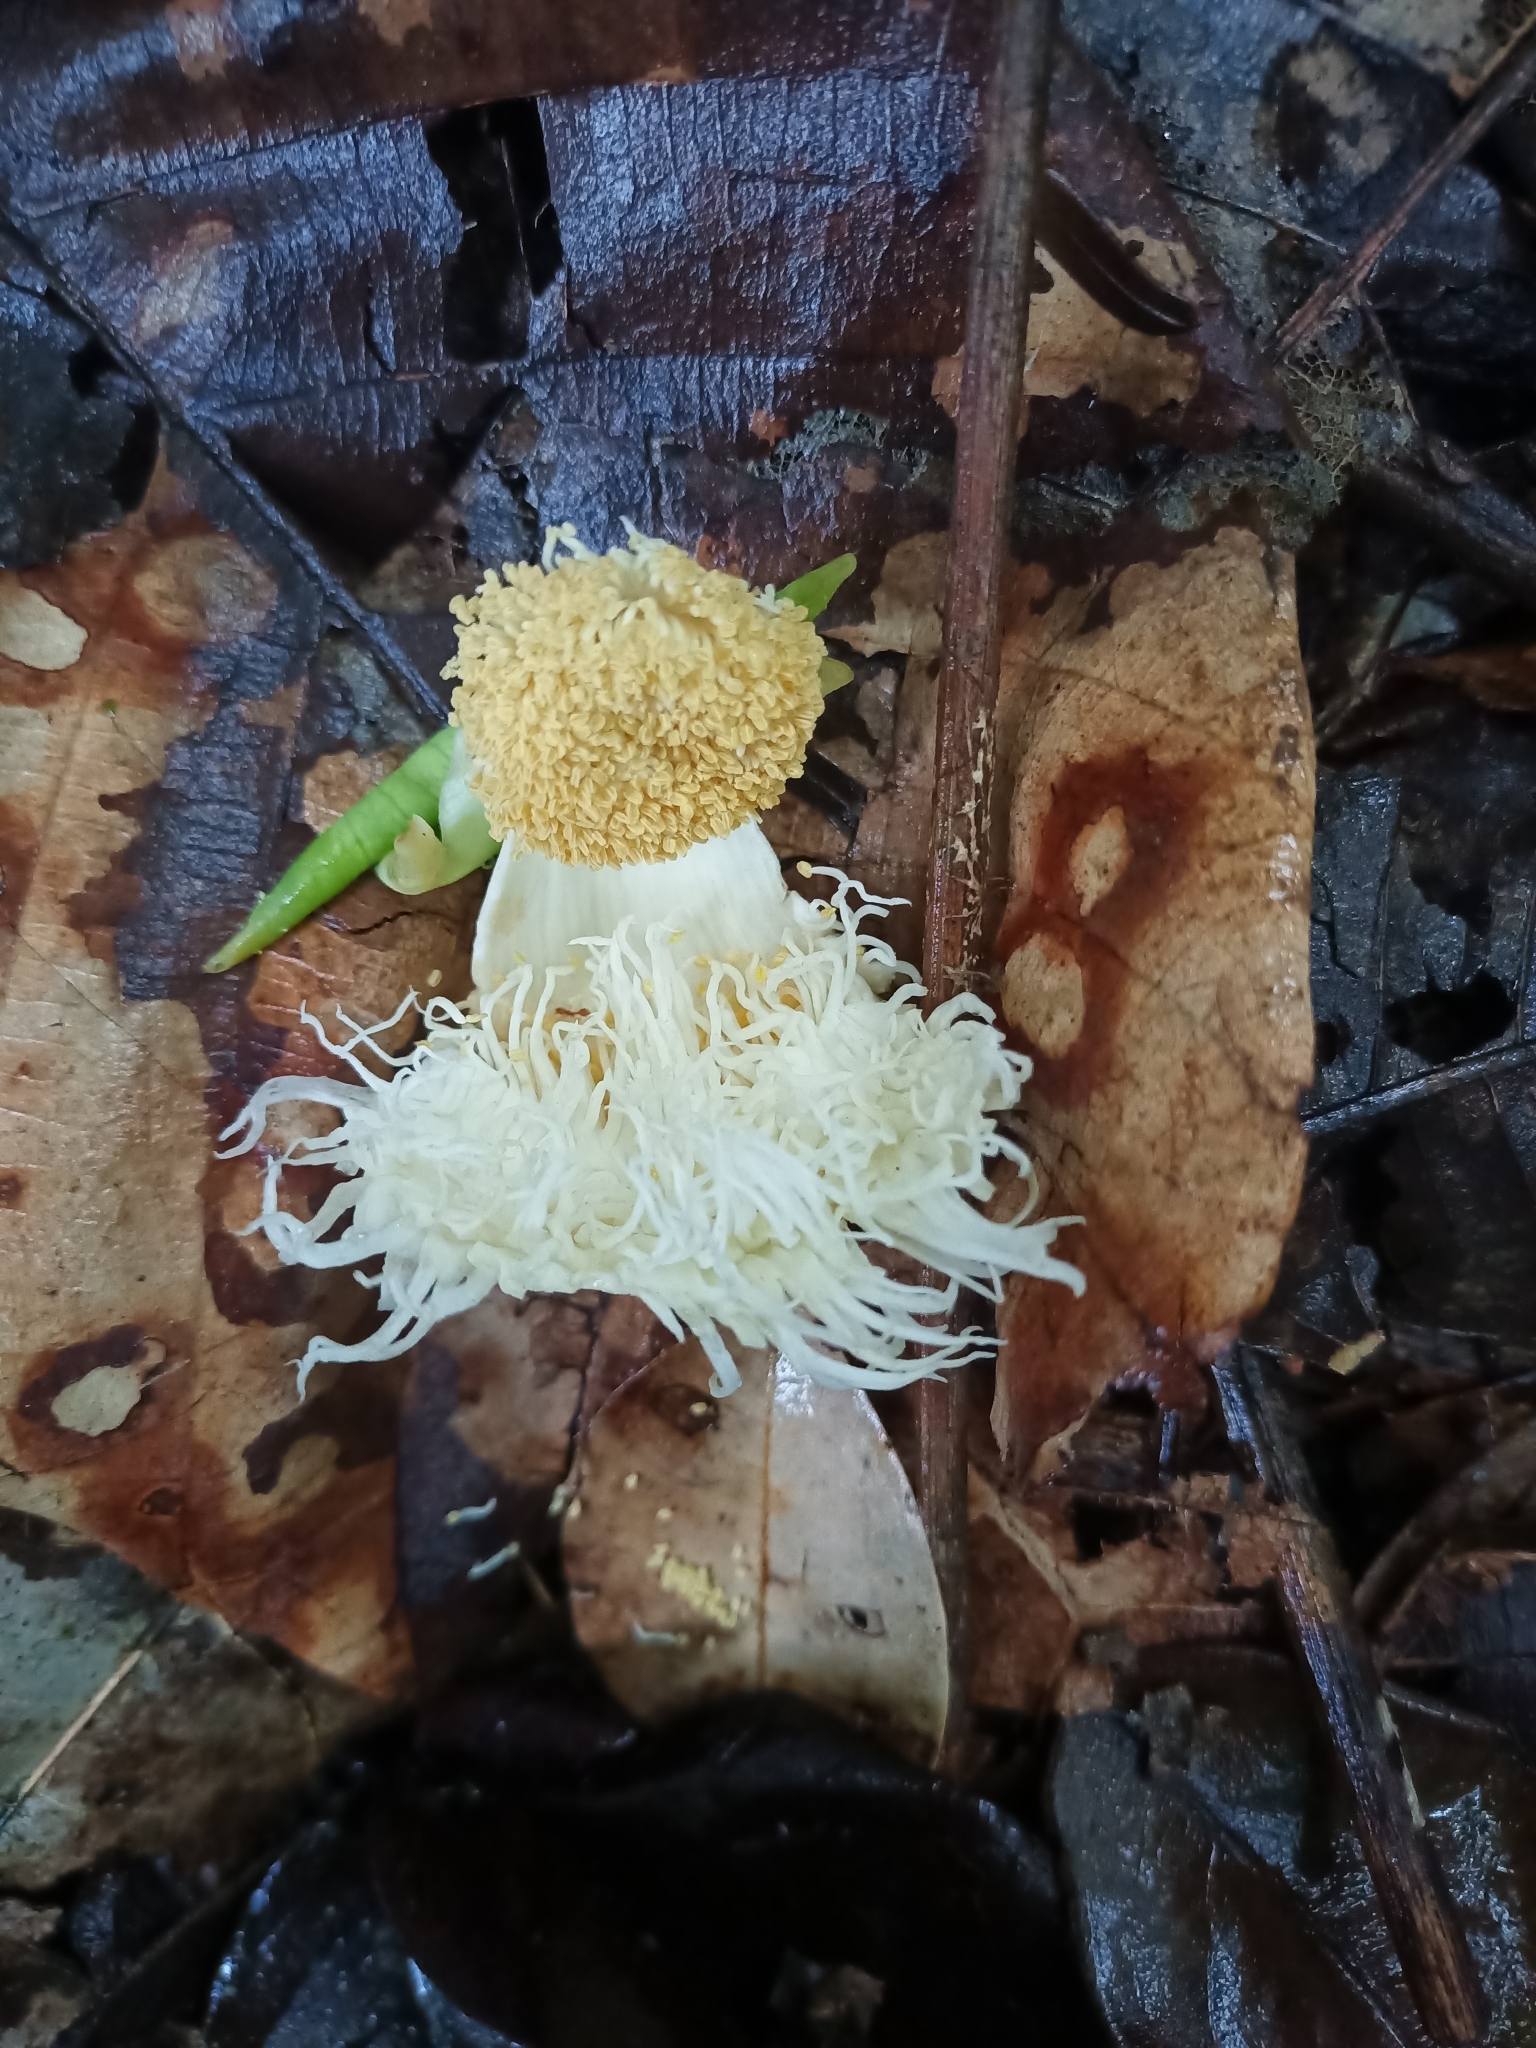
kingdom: Plantae
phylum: Tracheophyta
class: Magnoliopsida
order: Ericales
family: Lecythidaceae
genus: Lecythis
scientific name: Lecythis poiteaui
